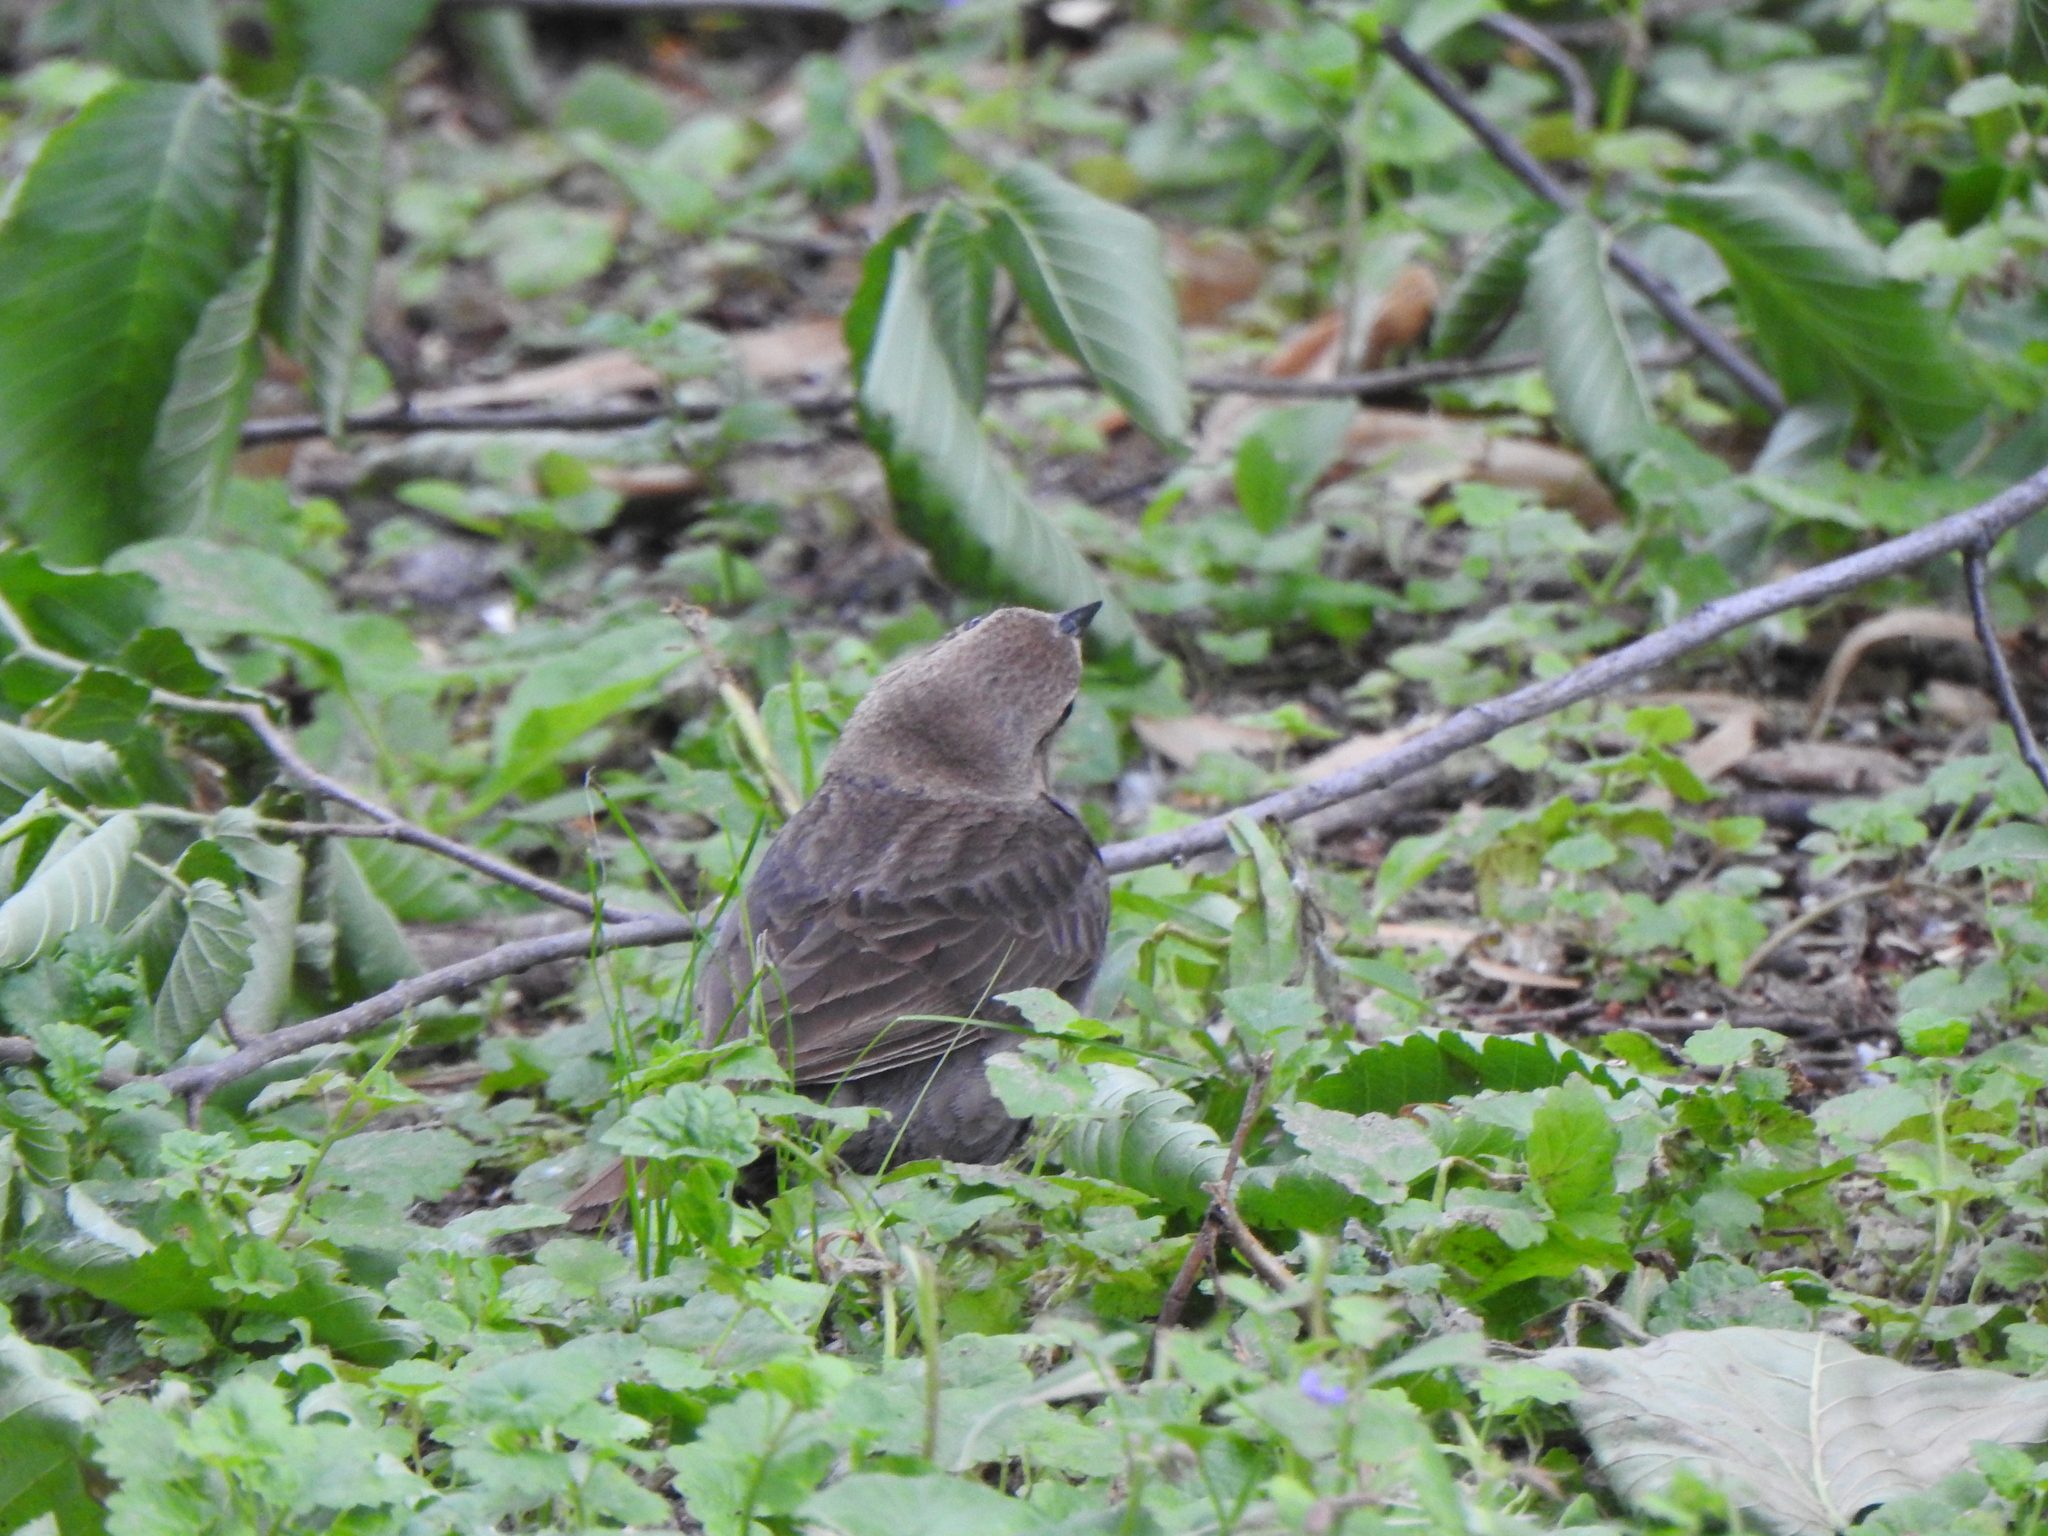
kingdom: Animalia
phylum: Chordata
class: Aves
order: Passeriformes
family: Icteridae
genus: Molothrus
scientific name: Molothrus ater
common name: Brown-headed cowbird
